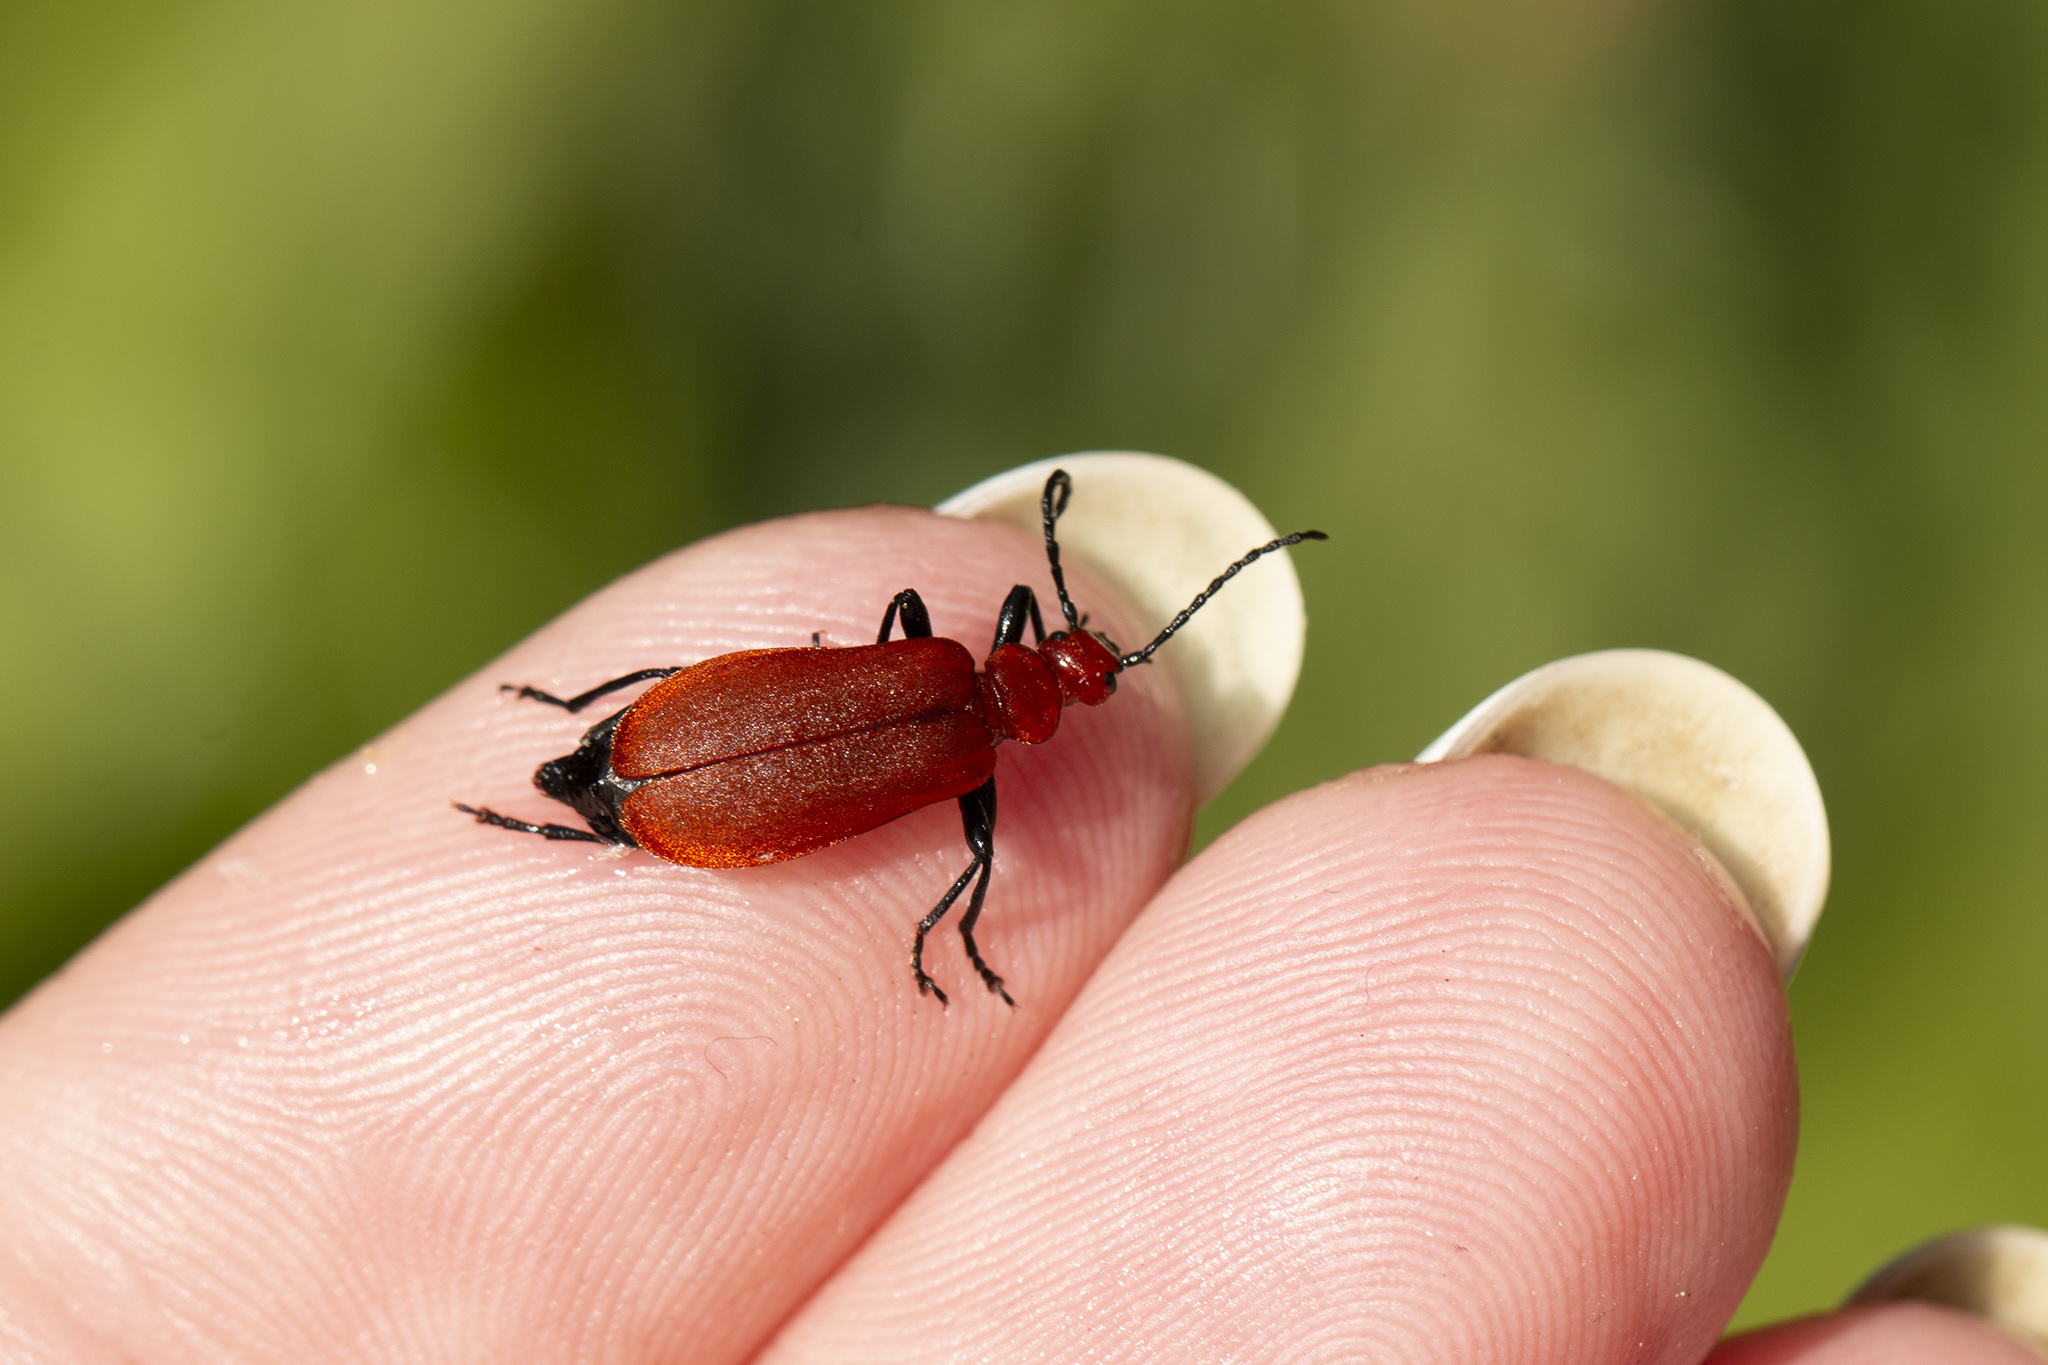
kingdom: Animalia
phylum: Arthropoda
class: Insecta
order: Coleoptera
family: Pyrochroidae
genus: Pyrochroa
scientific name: Pyrochroa serraticornis
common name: Red-headed cardinal beetle
